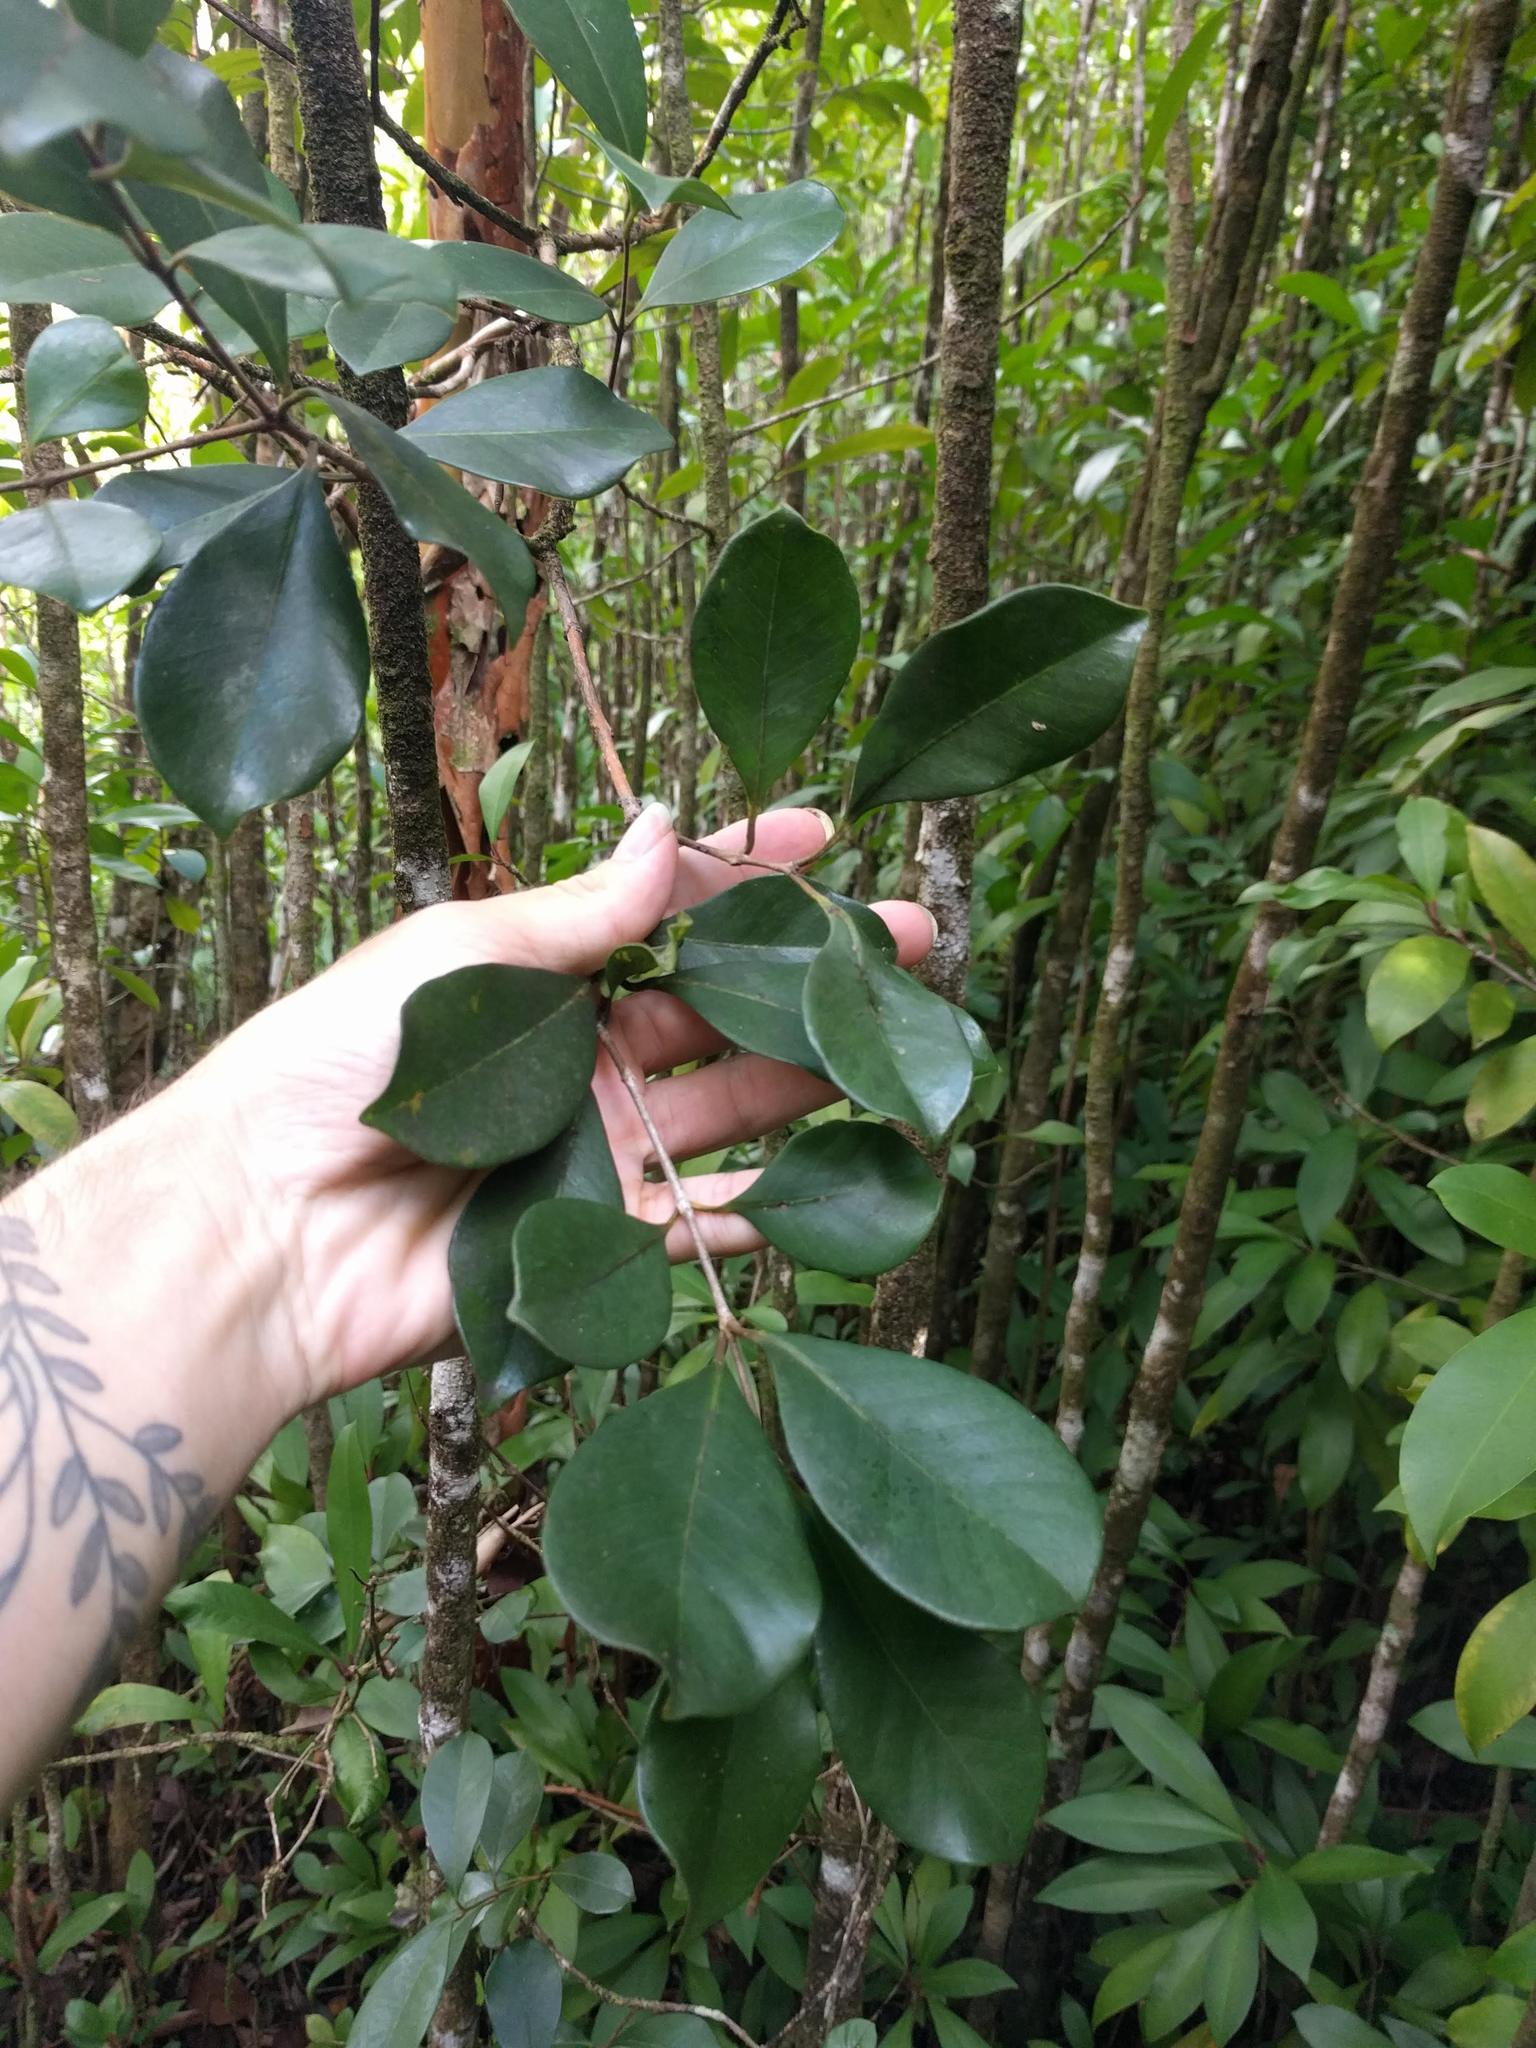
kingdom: Plantae
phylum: Tracheophyta
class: Magnoliopsida
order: Myrtales
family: Myrtaceae
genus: Psidium
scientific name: Psidium cattleianum
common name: Strawberry guava
